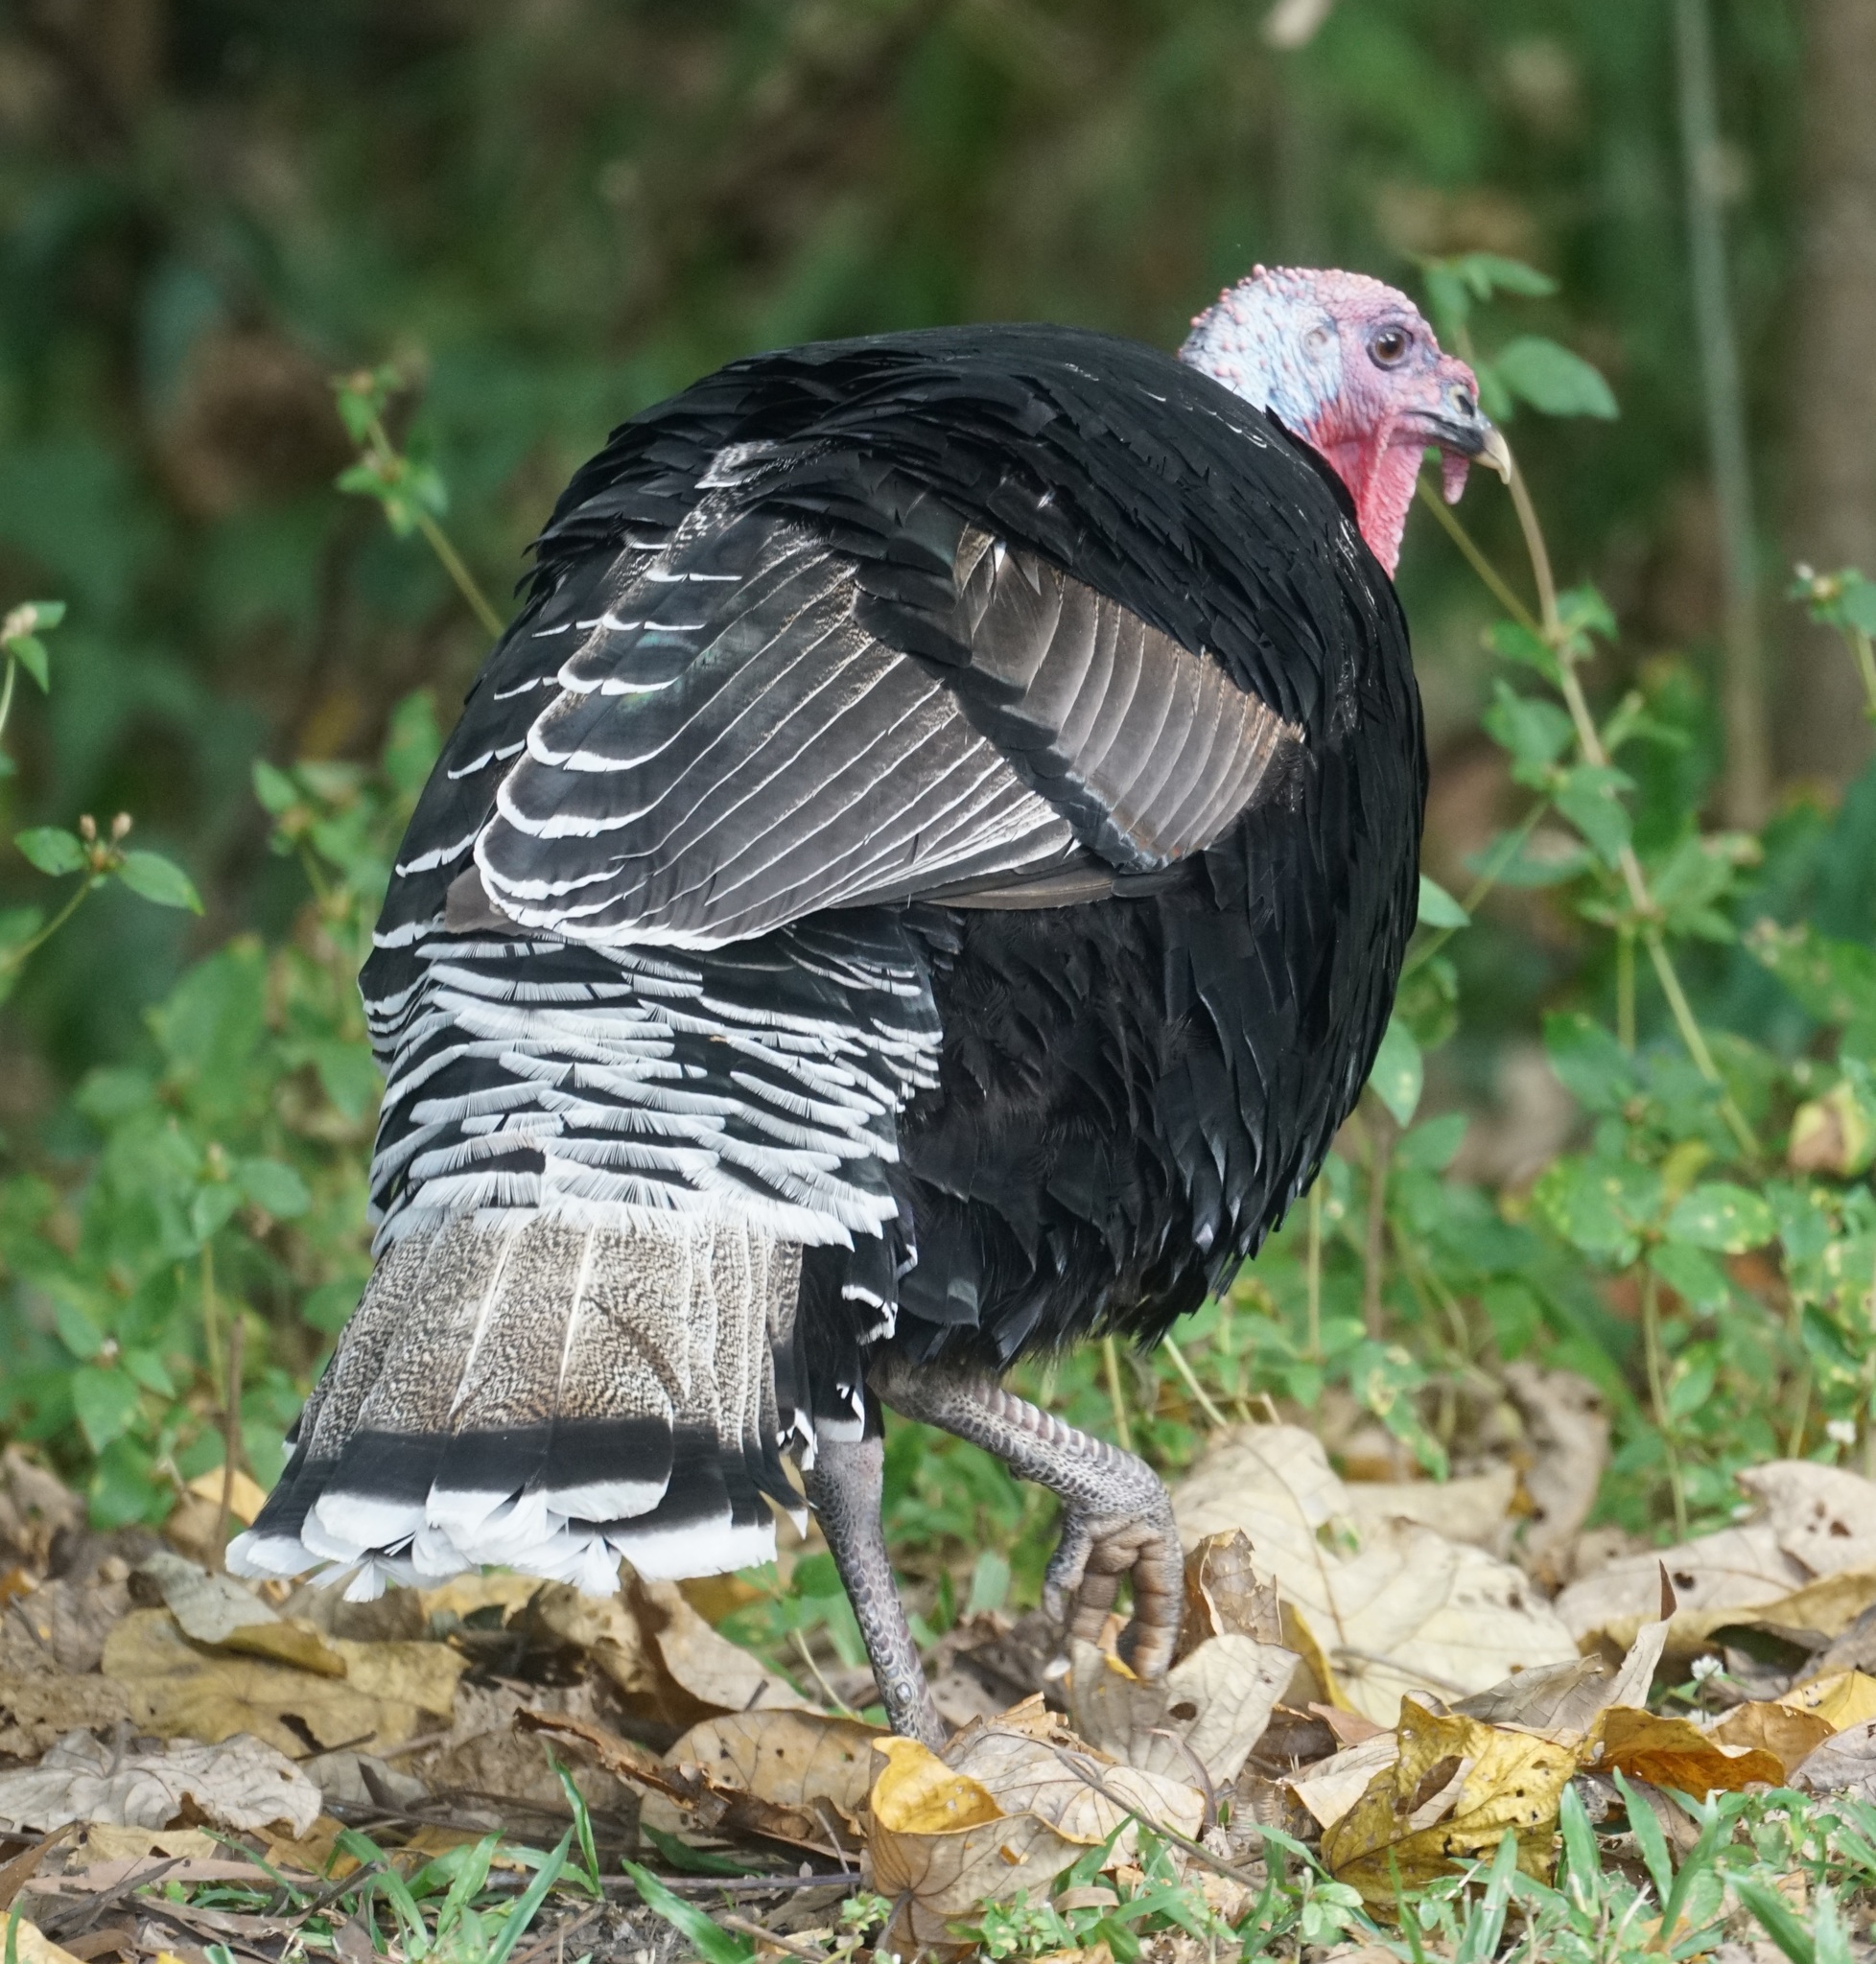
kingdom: Animalia
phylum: Chordata
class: Aves
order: Galliformes
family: Phasianidae
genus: Meleagris
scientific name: Meleagris gallopavo
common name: Wild turkey
